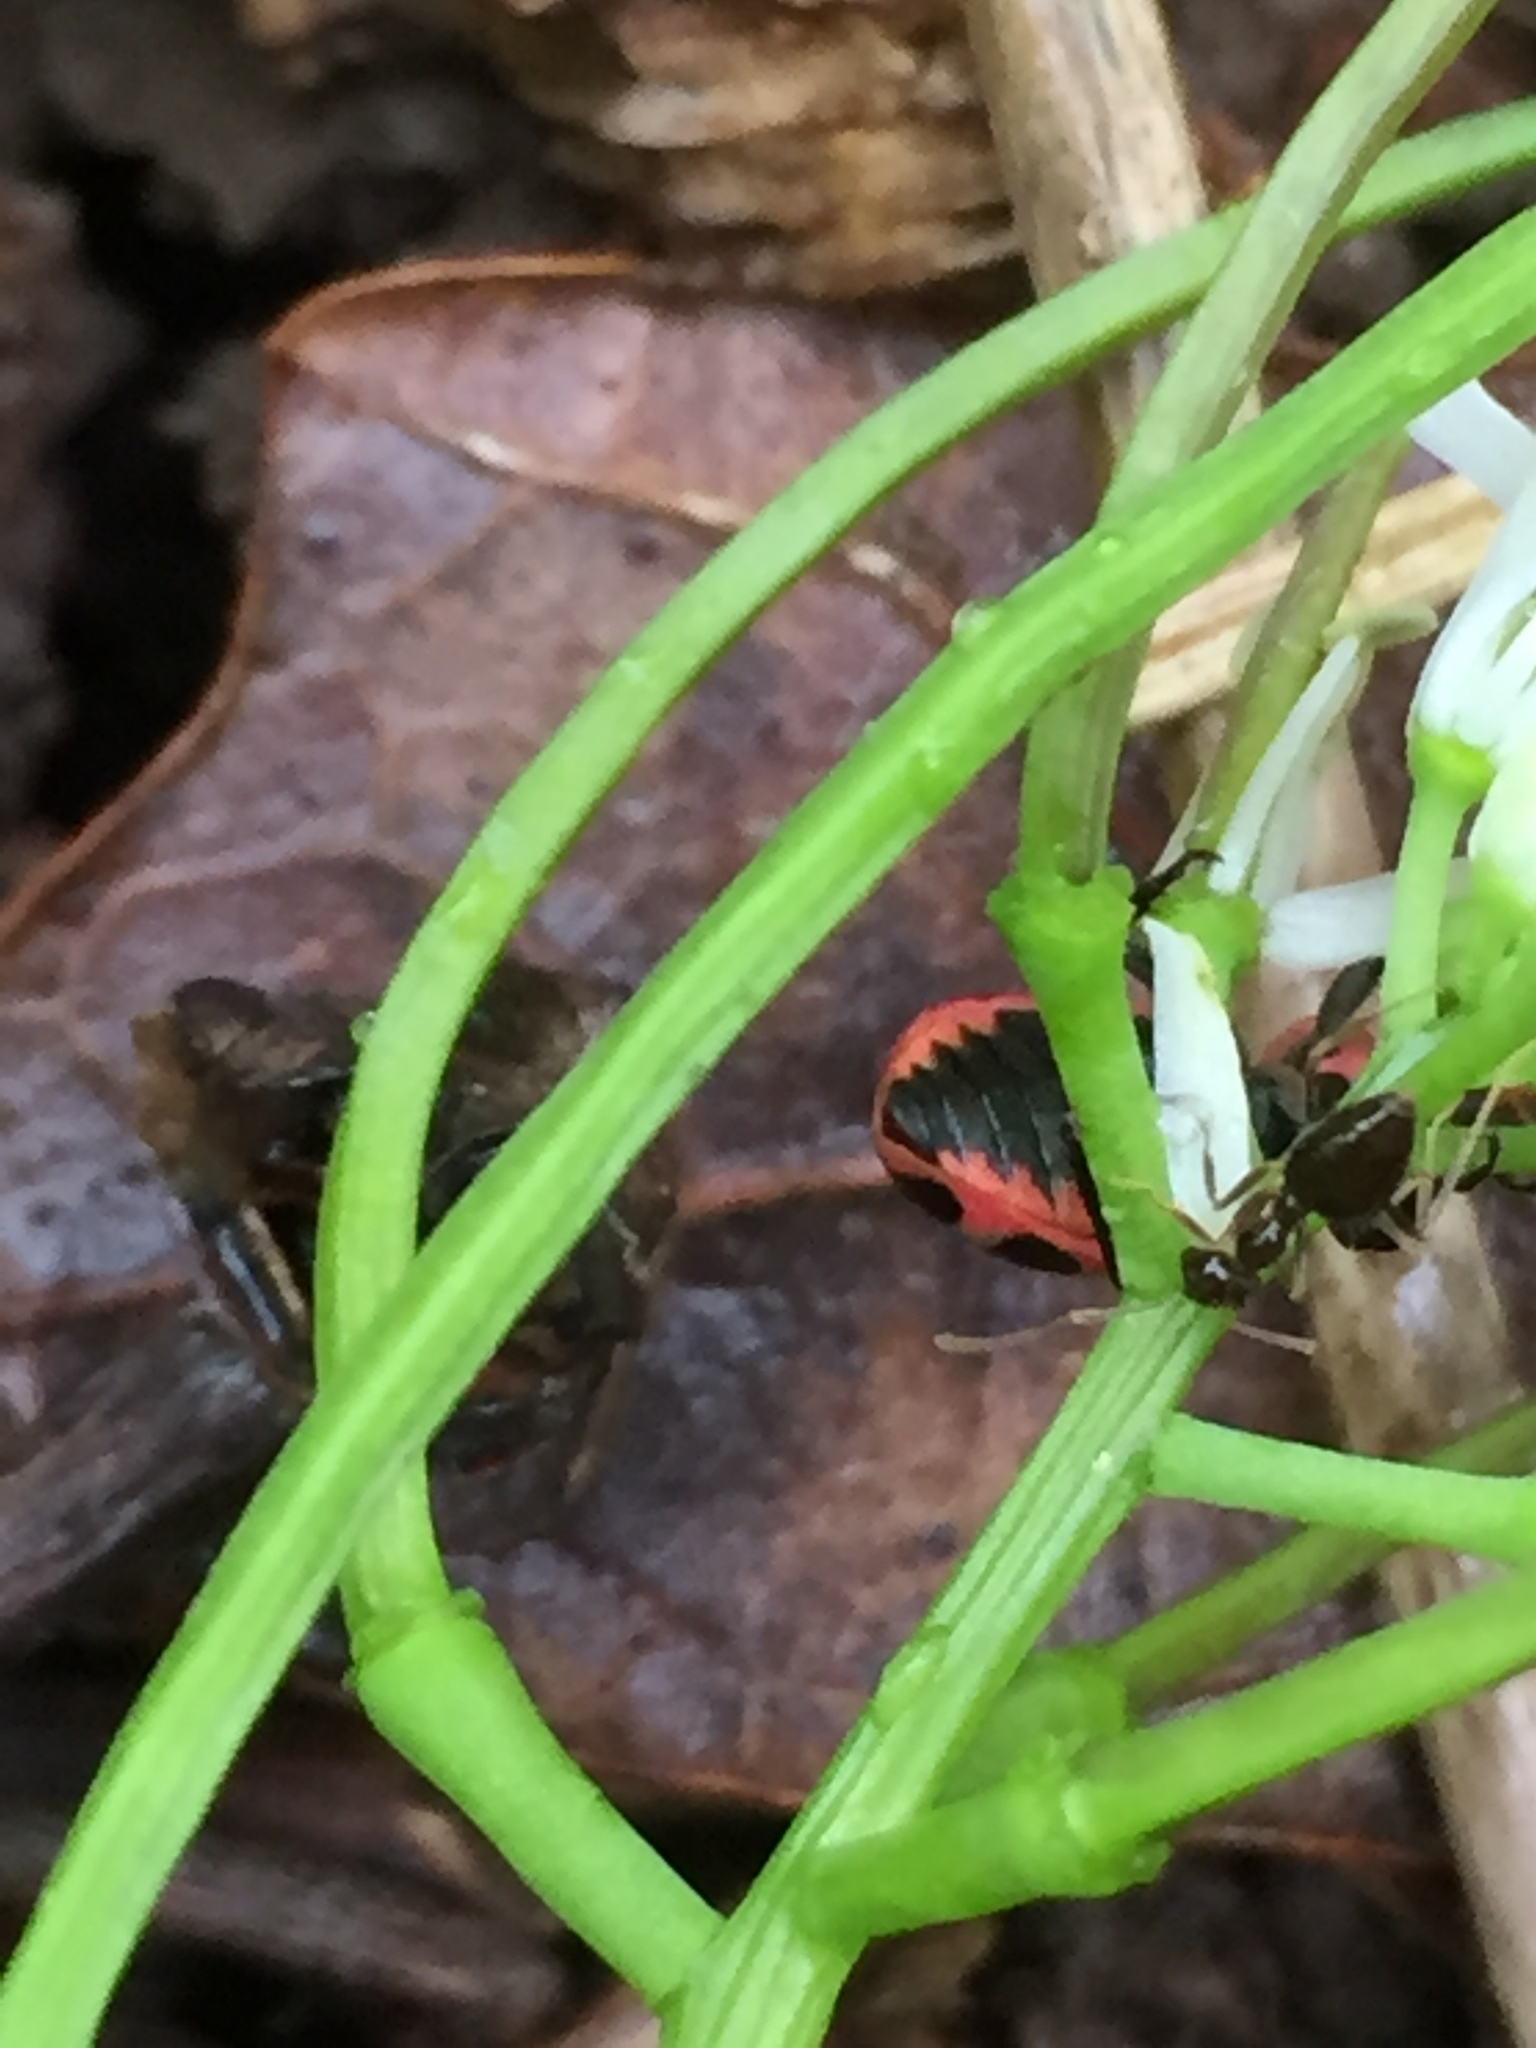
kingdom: Animalia
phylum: Arthropoda
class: Insecta
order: Coleoptera
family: Coccinellidae
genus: Coleomegilla
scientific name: Coleomegilla maculata
